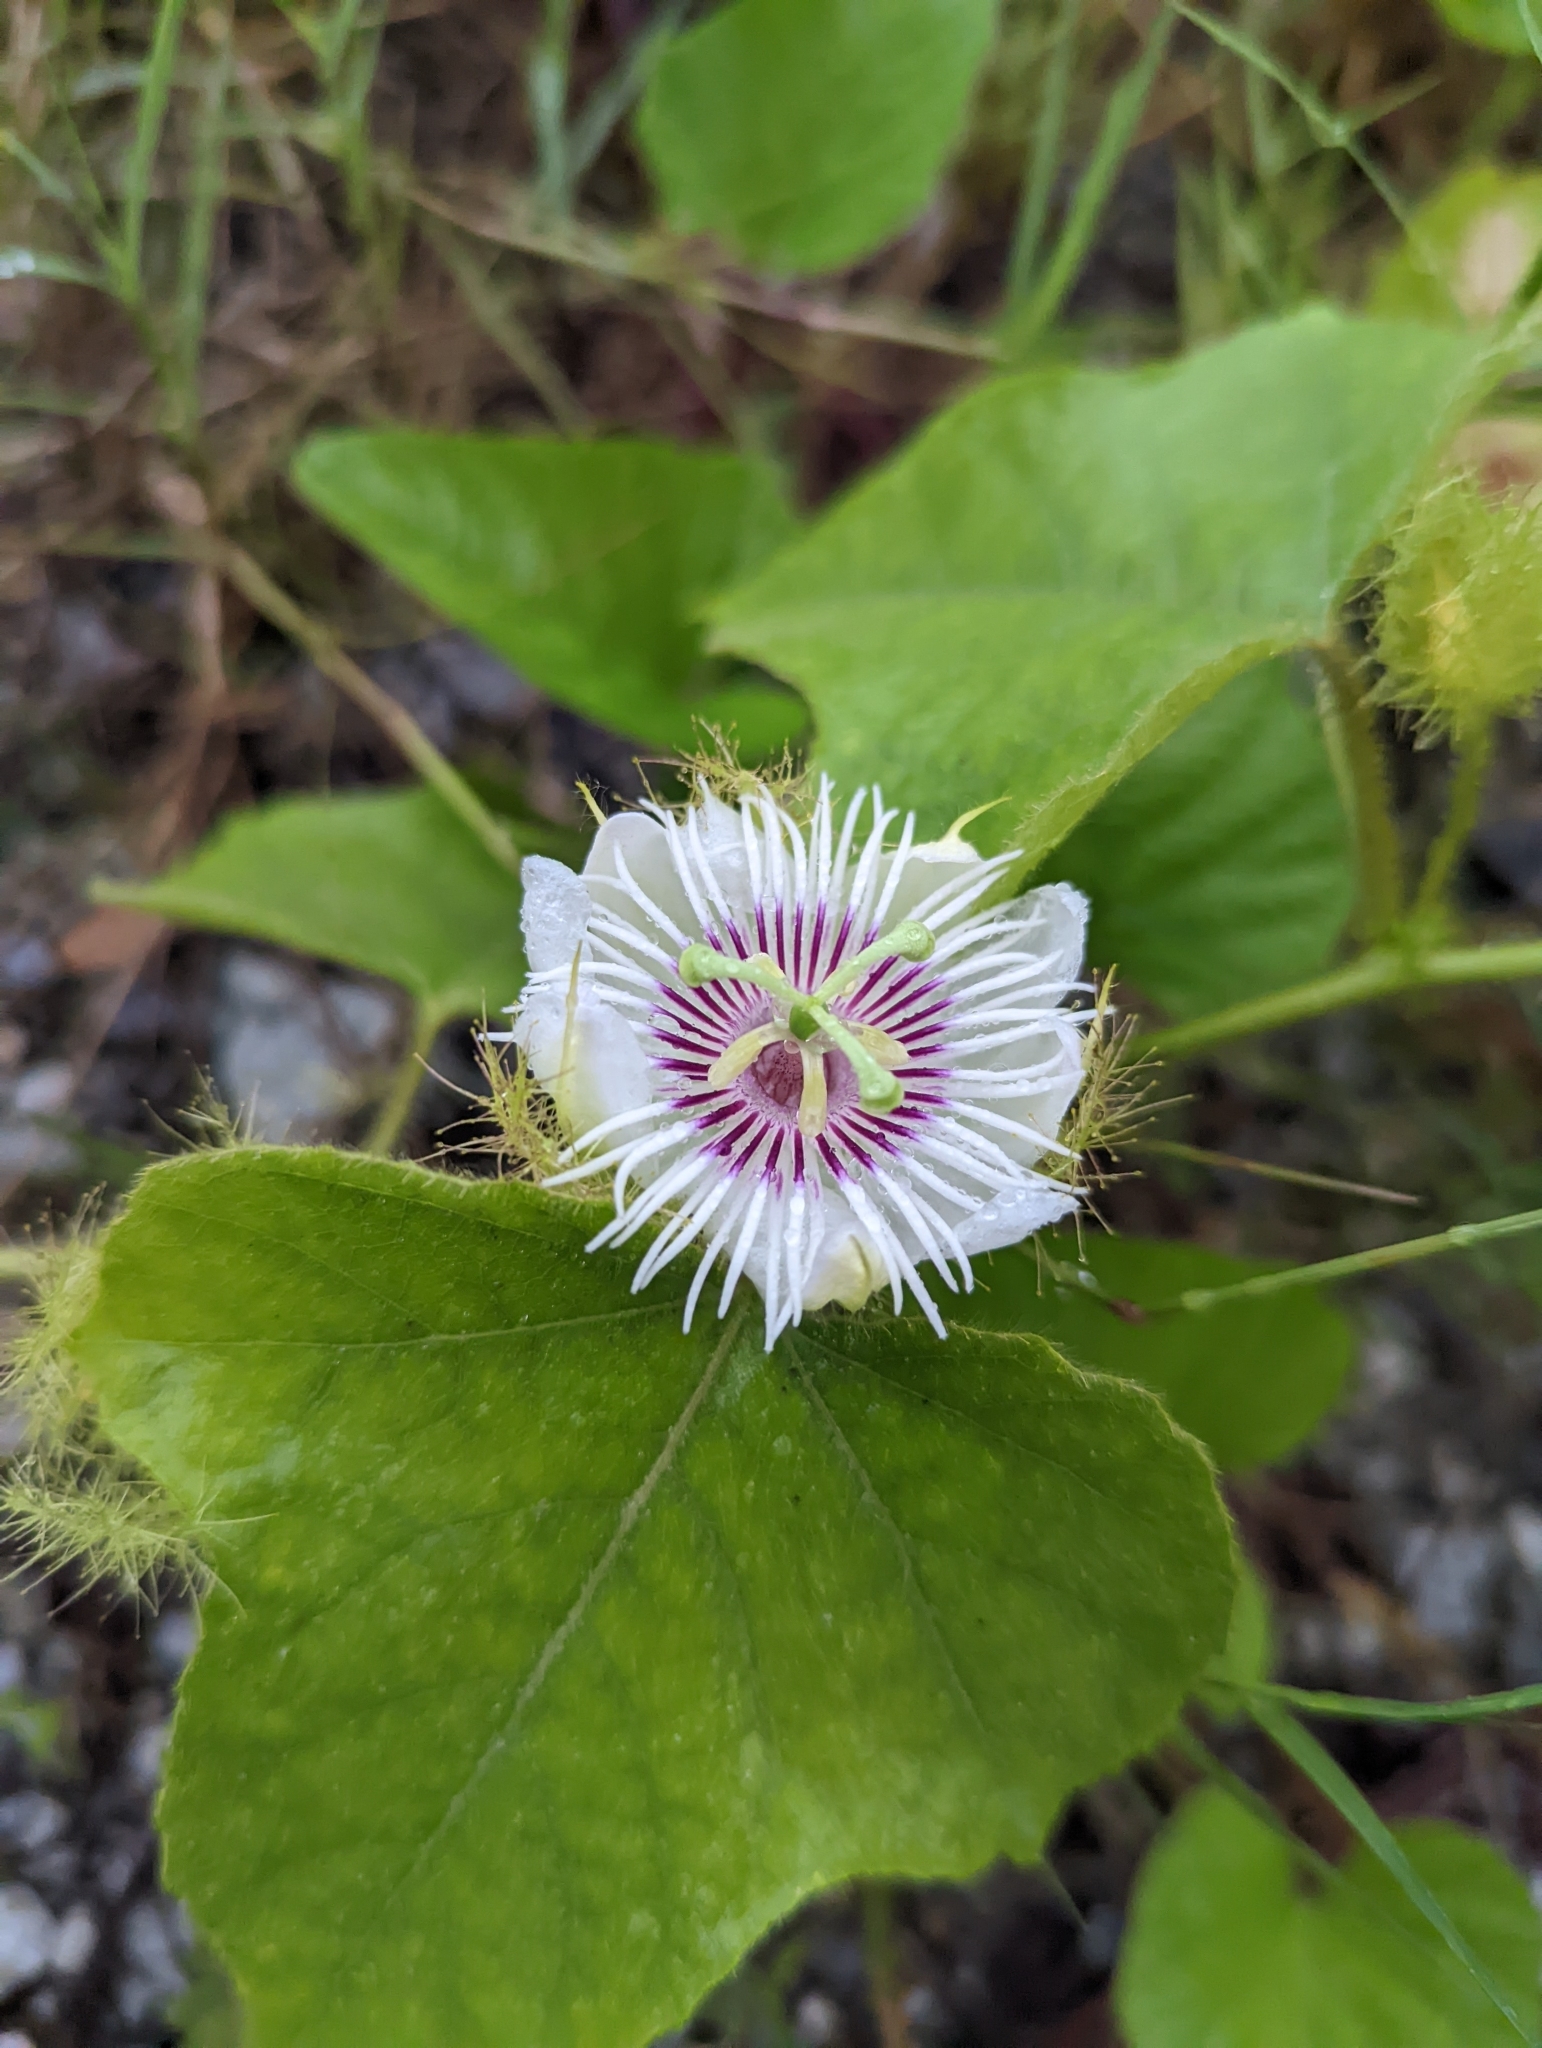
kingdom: Plantae
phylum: Tracheophyta
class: Magnoliopsida
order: Malpighiales
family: Passifloraceae
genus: Passiflora
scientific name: Passiflora foetida
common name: Fetid passionflower
